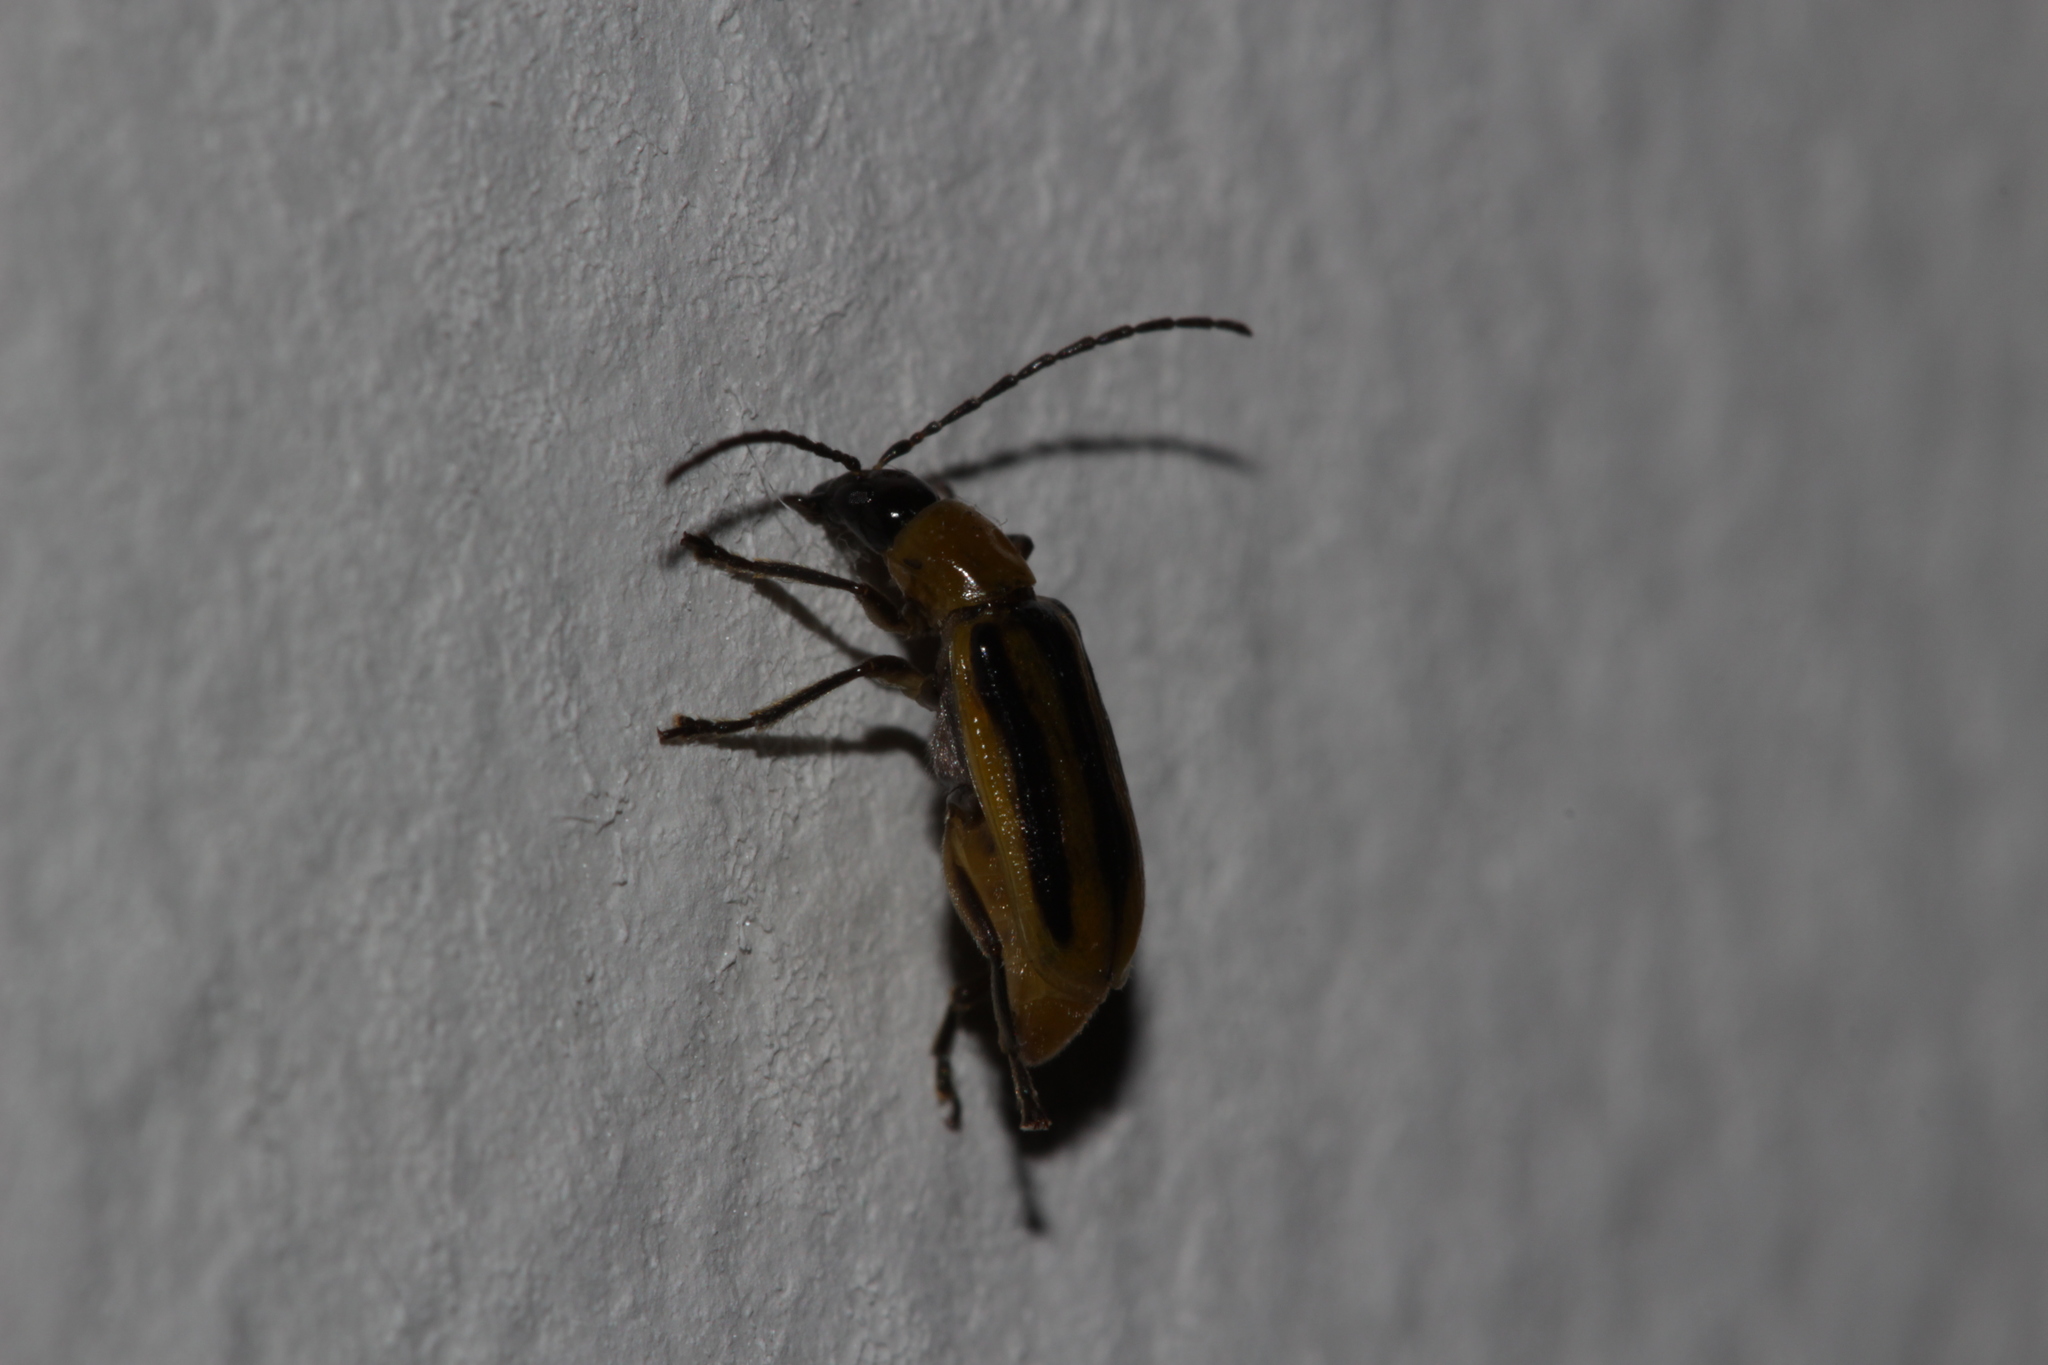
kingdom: Animalia
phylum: Arthropoda
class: Insecta
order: Coleoptera
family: Chrysomelidae
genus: Diabrotica
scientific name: Diabrotica virgifera
